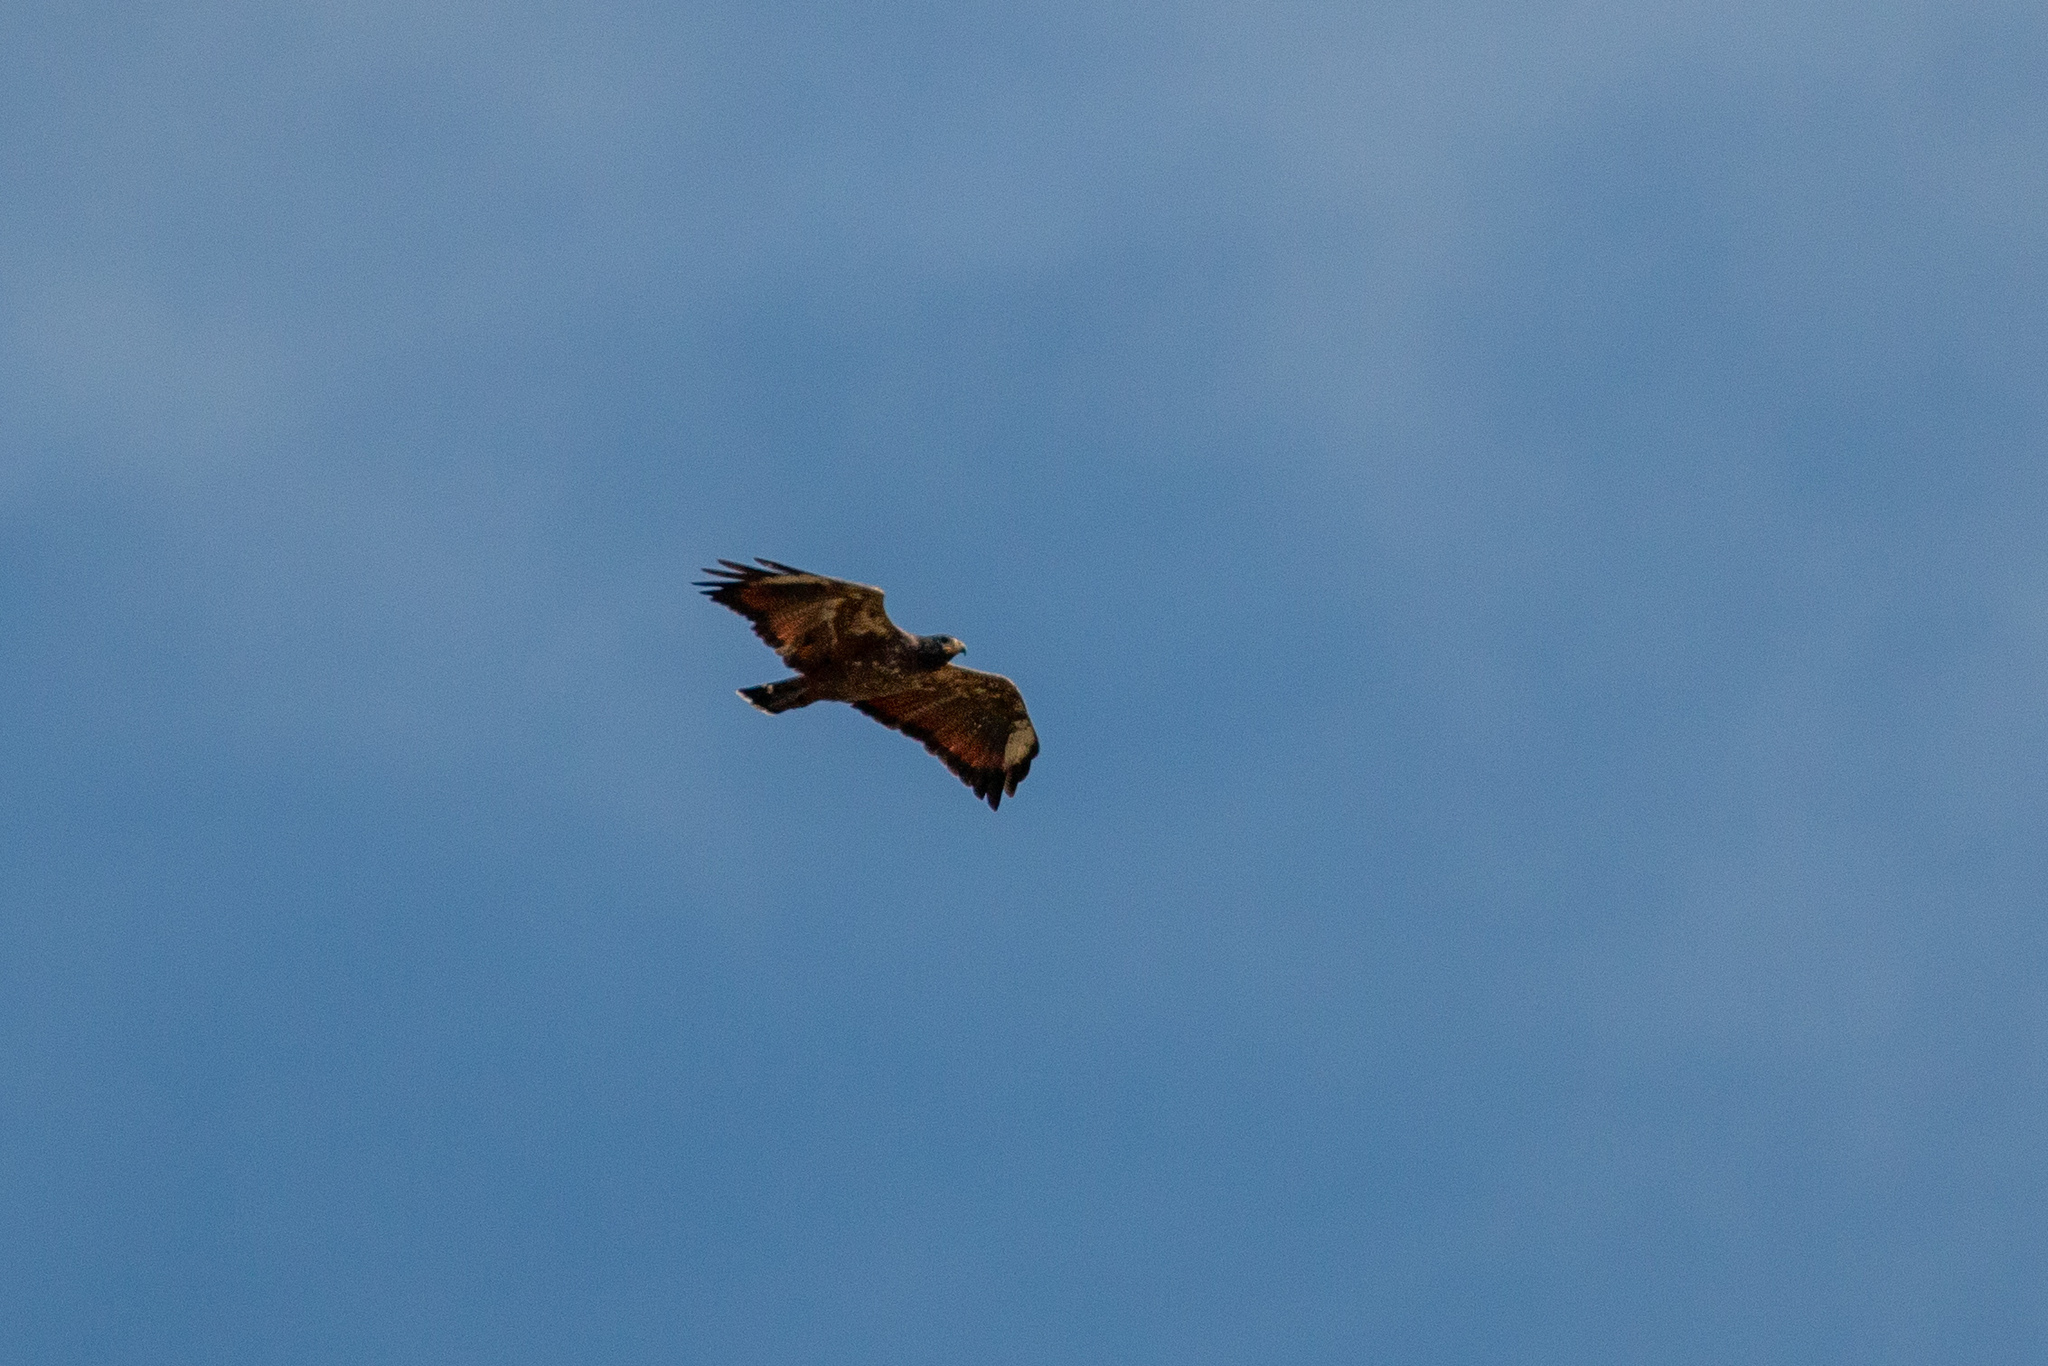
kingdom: Animalia
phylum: Chordata
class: Aves
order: Accipitriformes
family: Accipitridae
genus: Buteogallus
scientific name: Buteogallus aequinoctialis
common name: Rufous crab hawk
